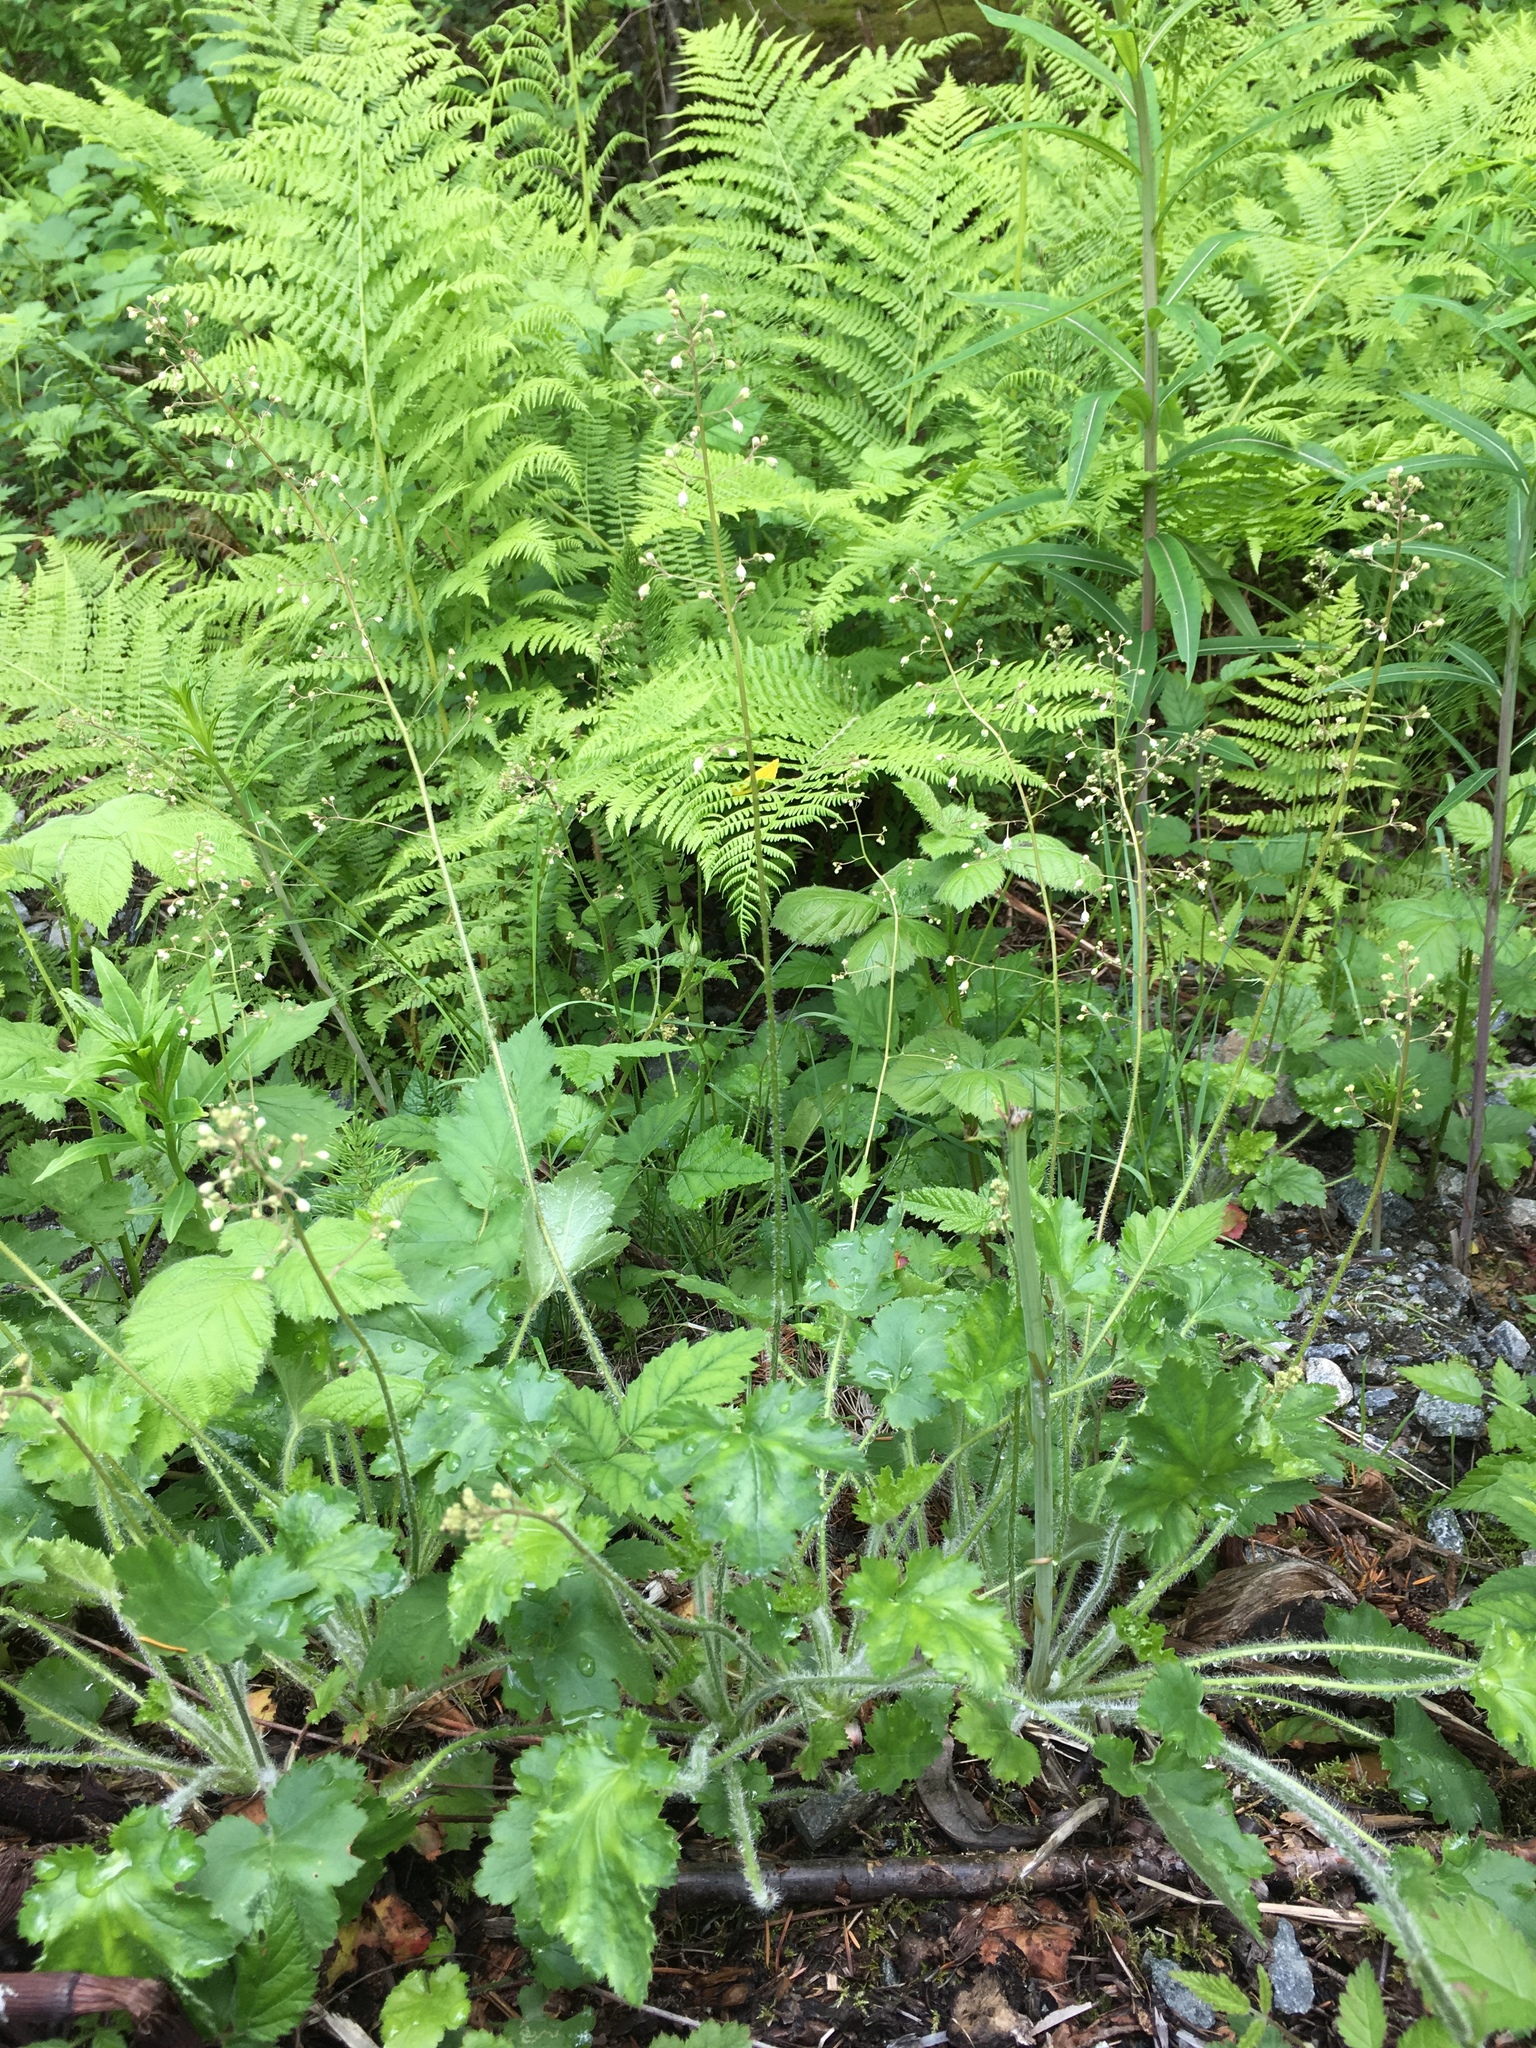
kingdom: Plantae
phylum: Tracheophyta
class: Magnoliopsida
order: Saxifragales
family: Saxifragaceae
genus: Heuchera
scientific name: Heuchera micrantha
